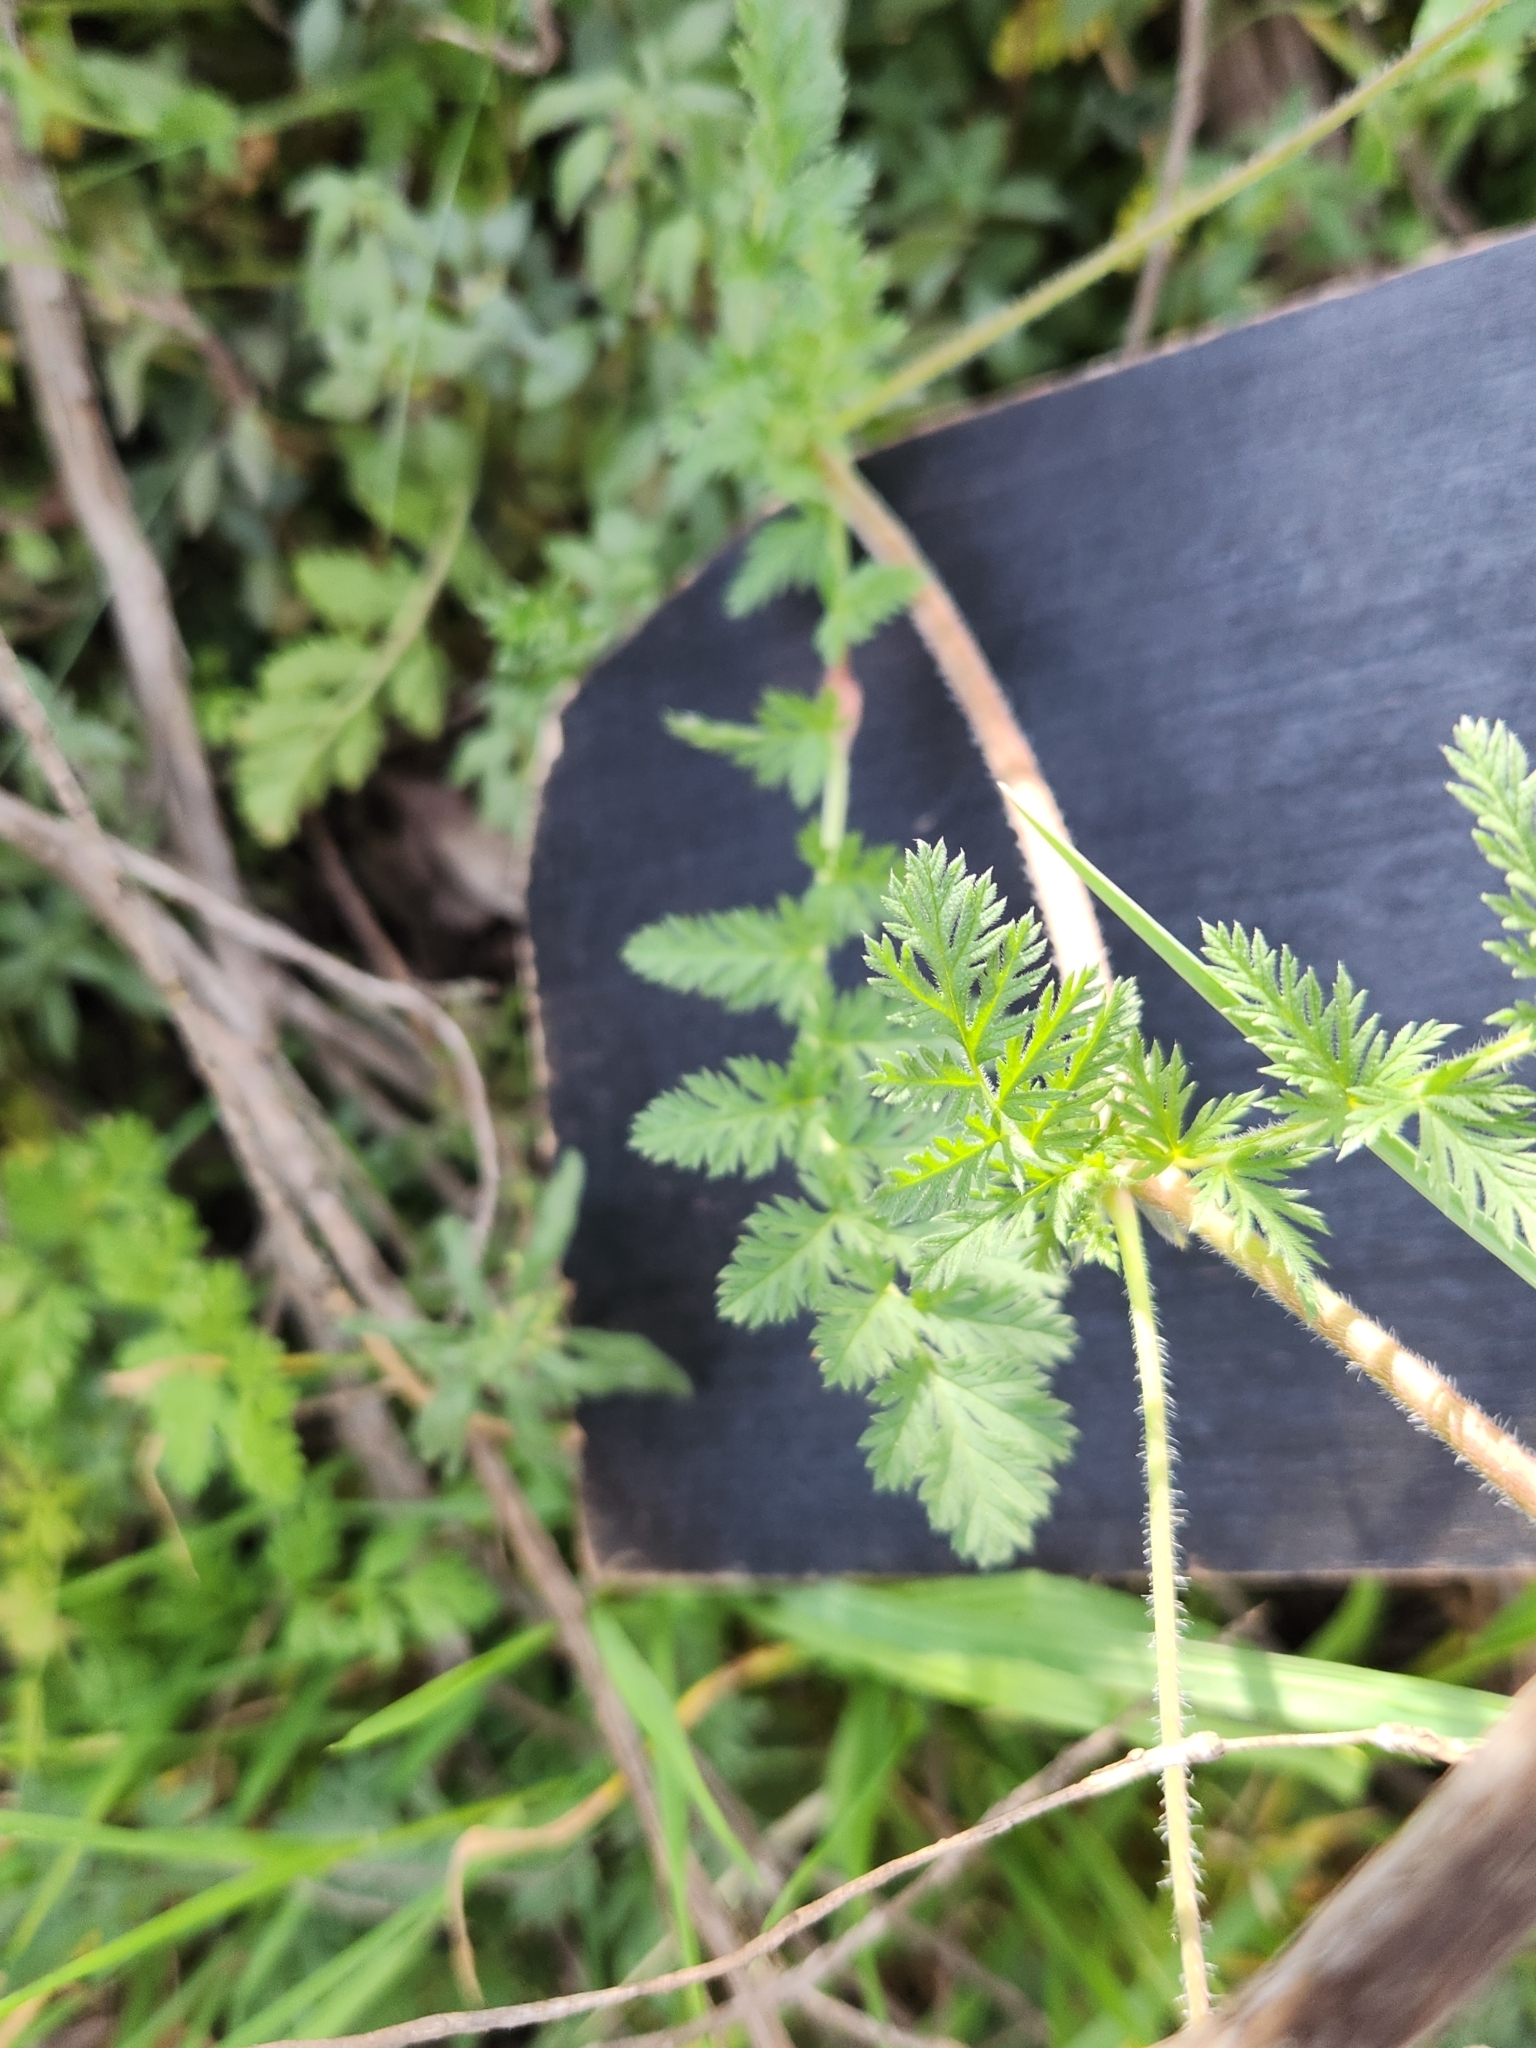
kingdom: Plantae
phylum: Tracheophyta
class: Magnoliopsida
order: Geraniales
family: Geraniaceae
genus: Erodium
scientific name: Erodium cicutarium
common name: Common stork's-bill
